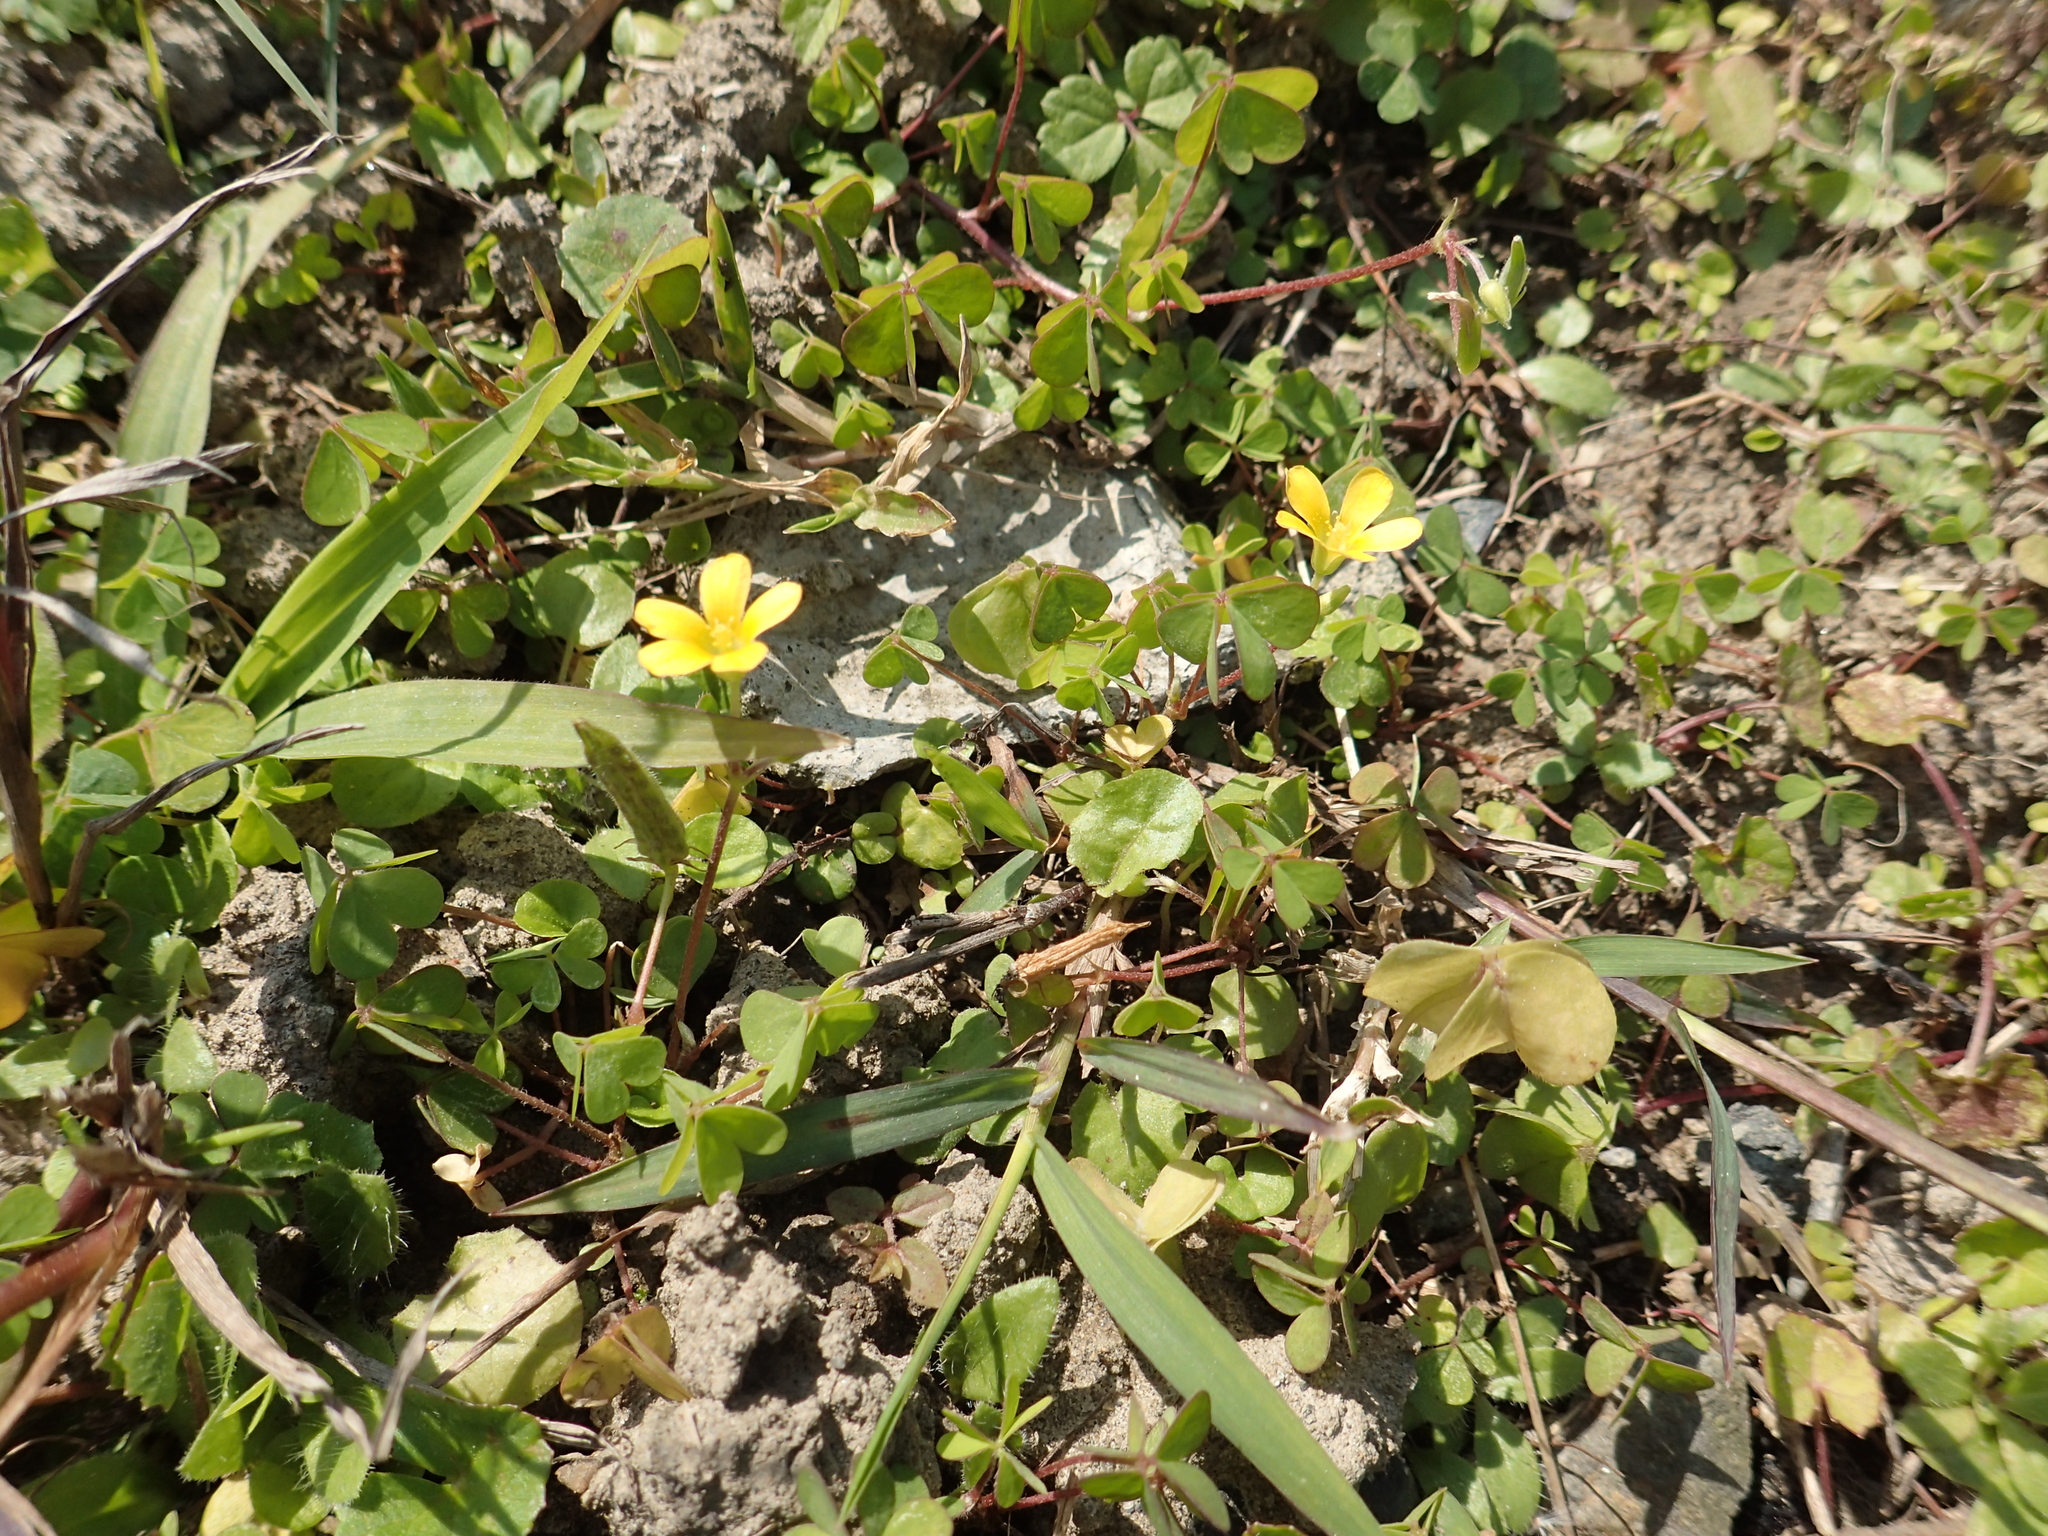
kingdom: Plantae
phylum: Tracheophyta
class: Magnoliopsida
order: Oxalidales
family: Oxalidaceae
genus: Oxalis
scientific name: Oxalis corniculata
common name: Procumbent yellow-sorrel
